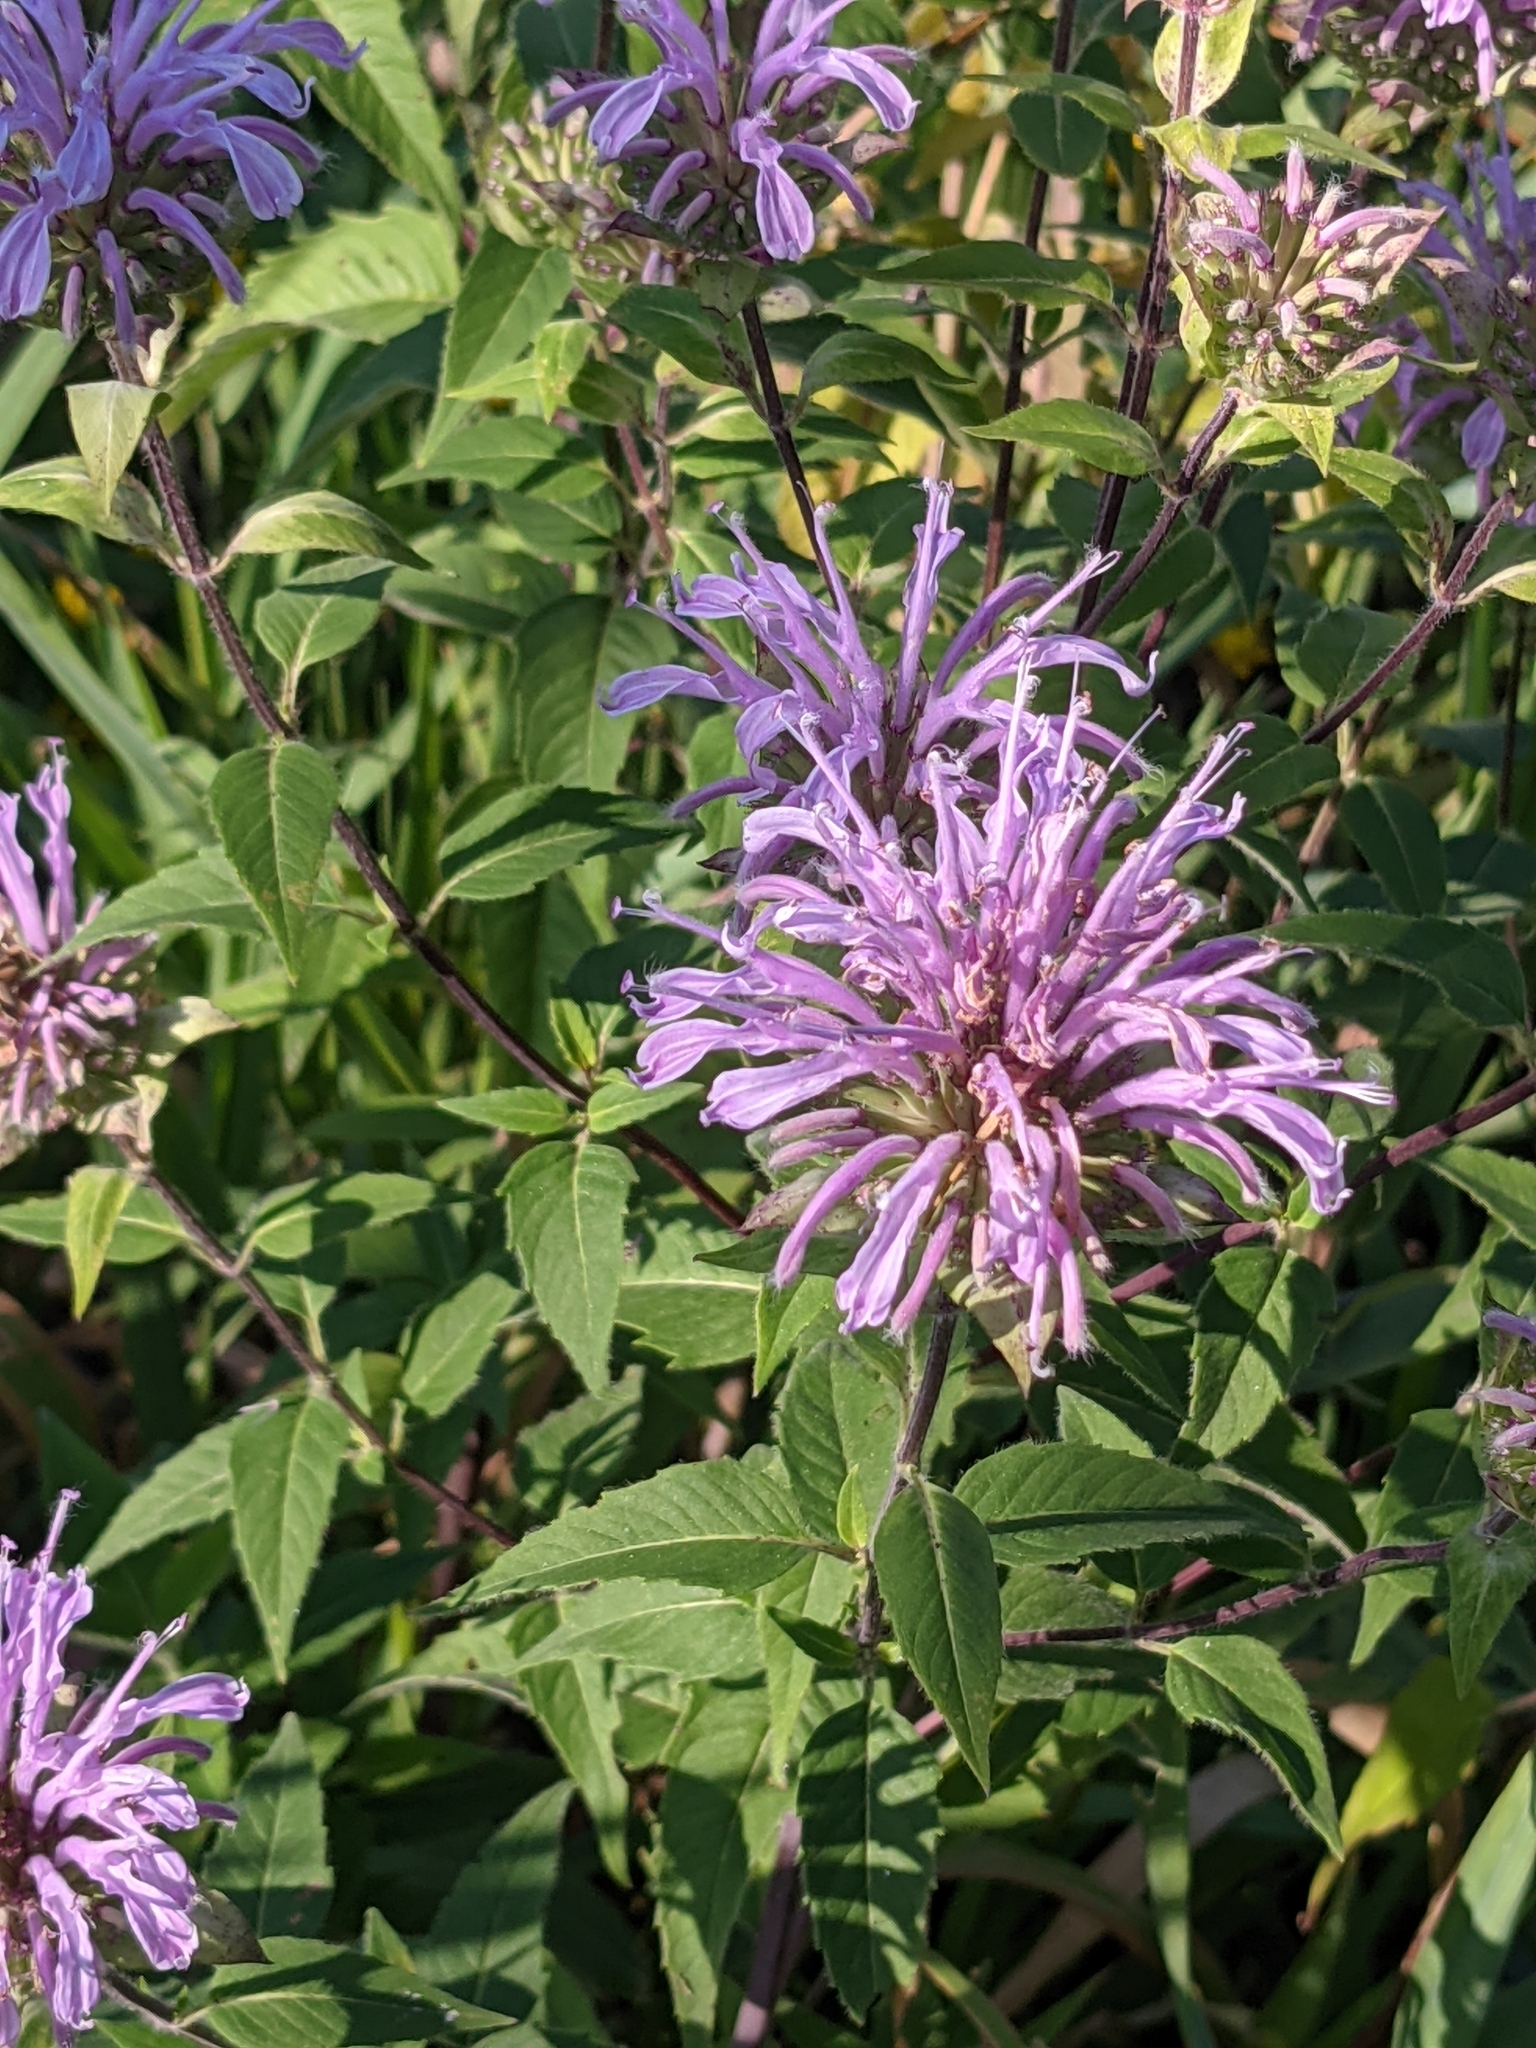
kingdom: Plantae
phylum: Tracheophyta
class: Magnoliopsida
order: Lamiales
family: Lamiaceae
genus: Monarda
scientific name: Monarda fistulosa
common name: Purple beebalm
